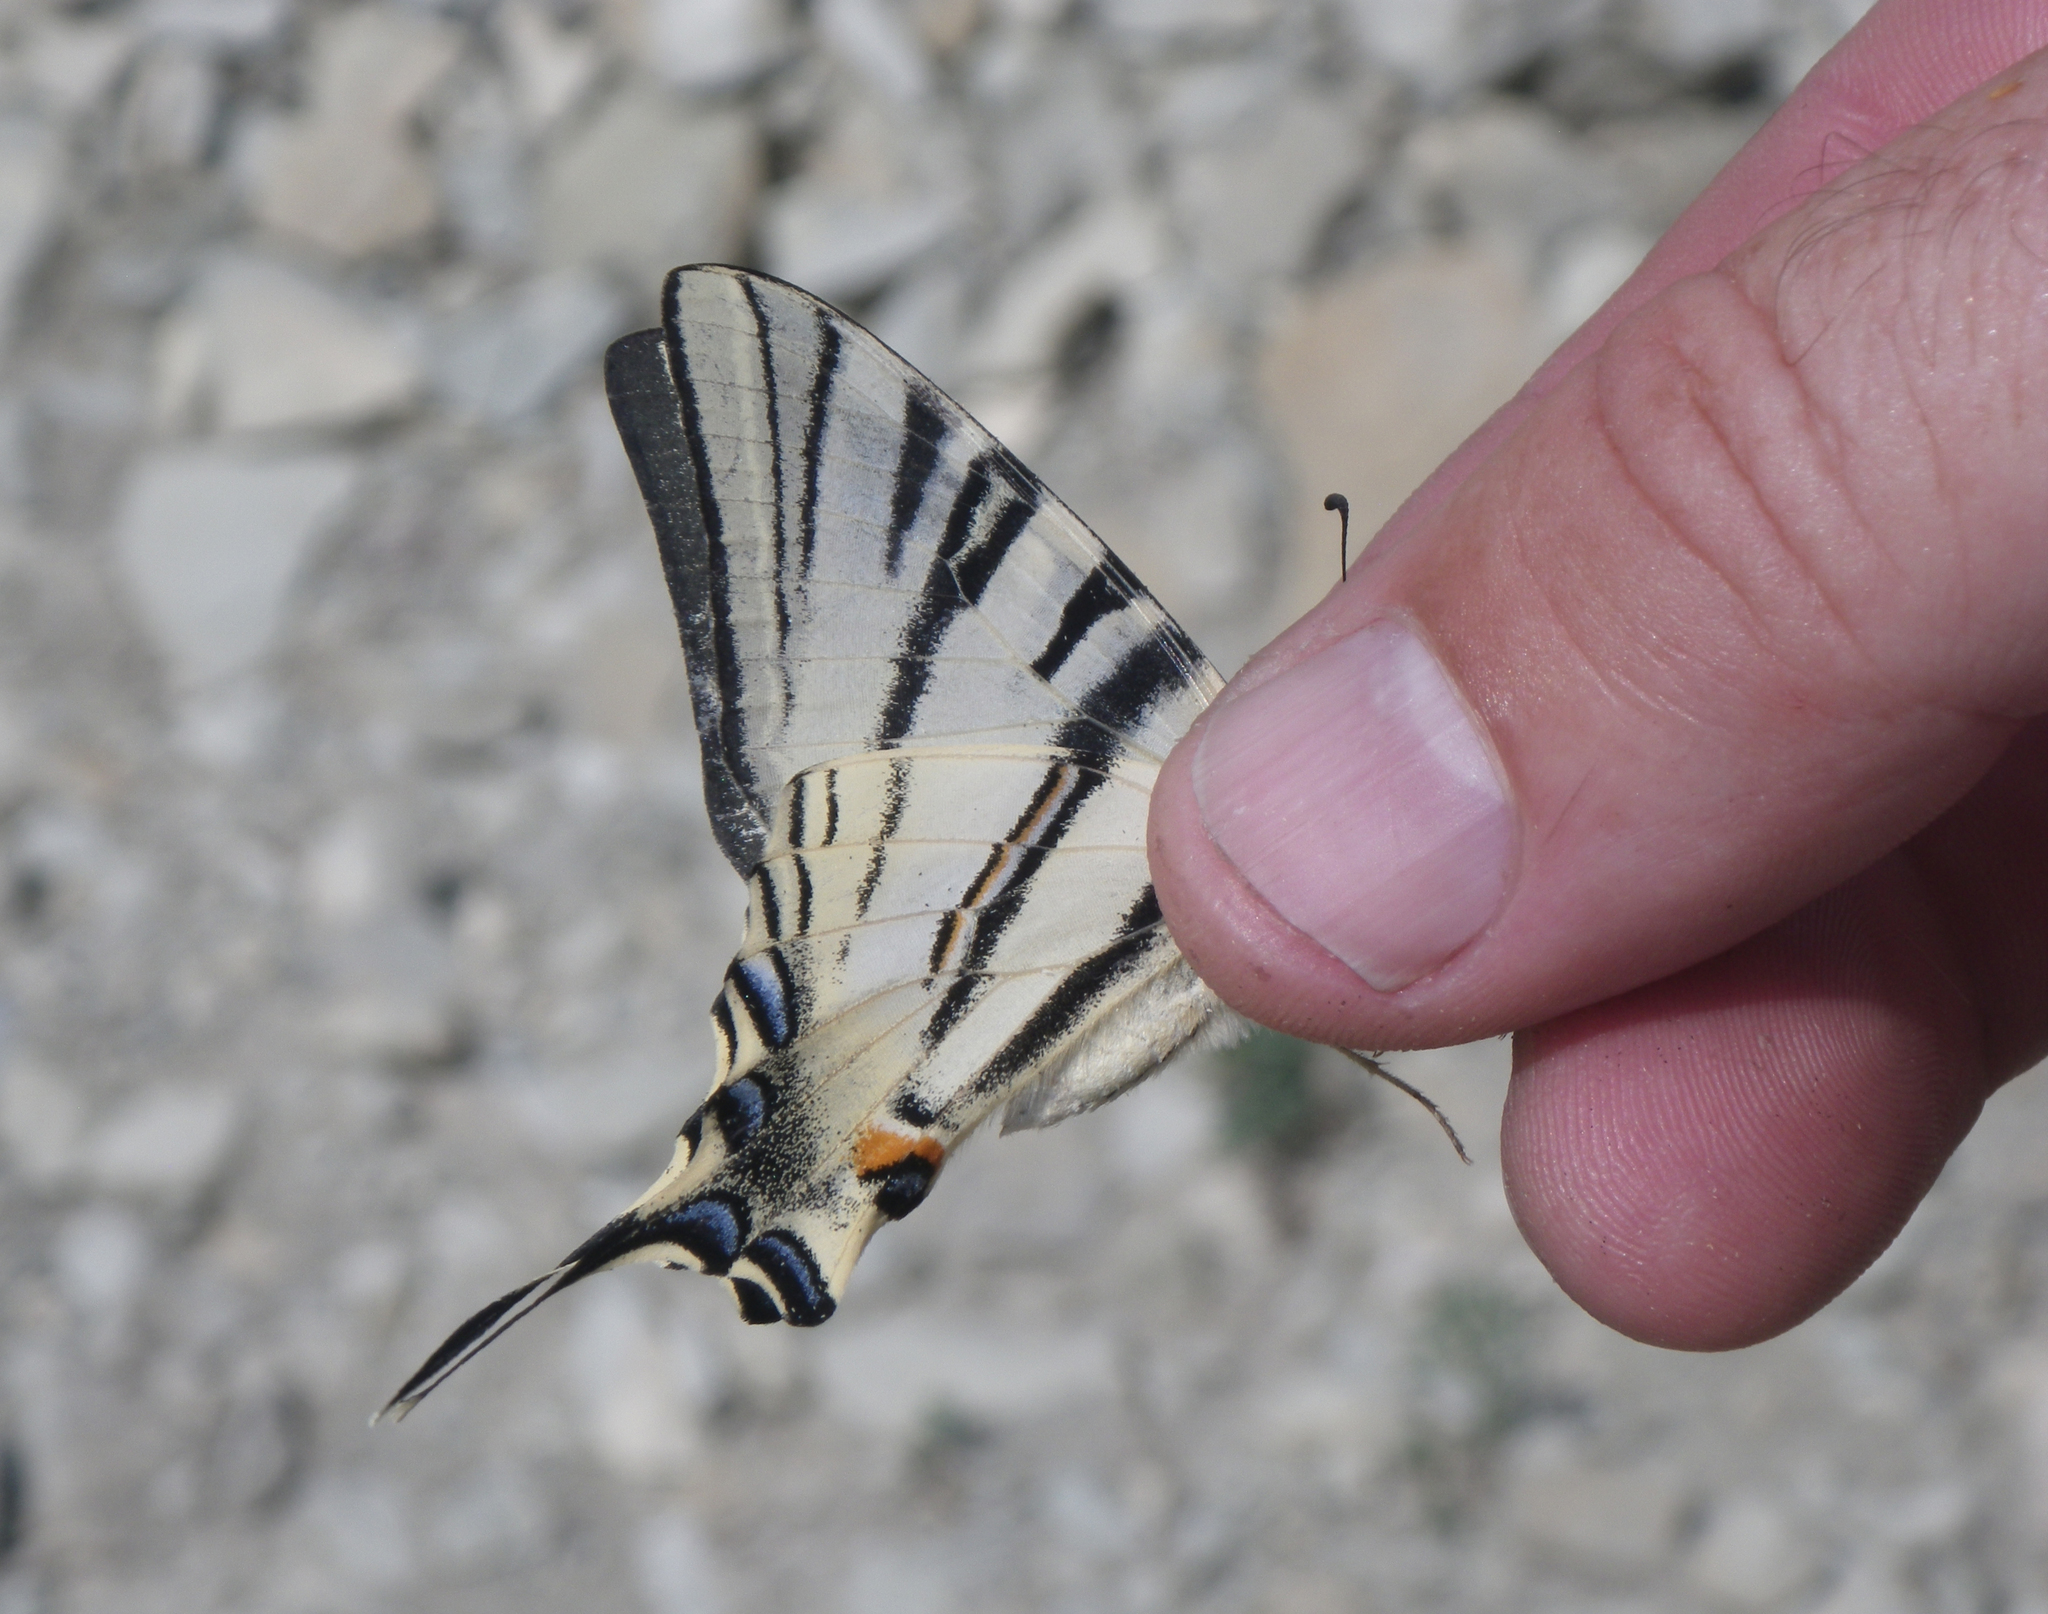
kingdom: Animalia
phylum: Arthropoda
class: Insecta
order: Lepidoptera
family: Papilionidae
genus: Iphiclides
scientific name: Iphiclides podalirius
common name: Scarce swallowtail
